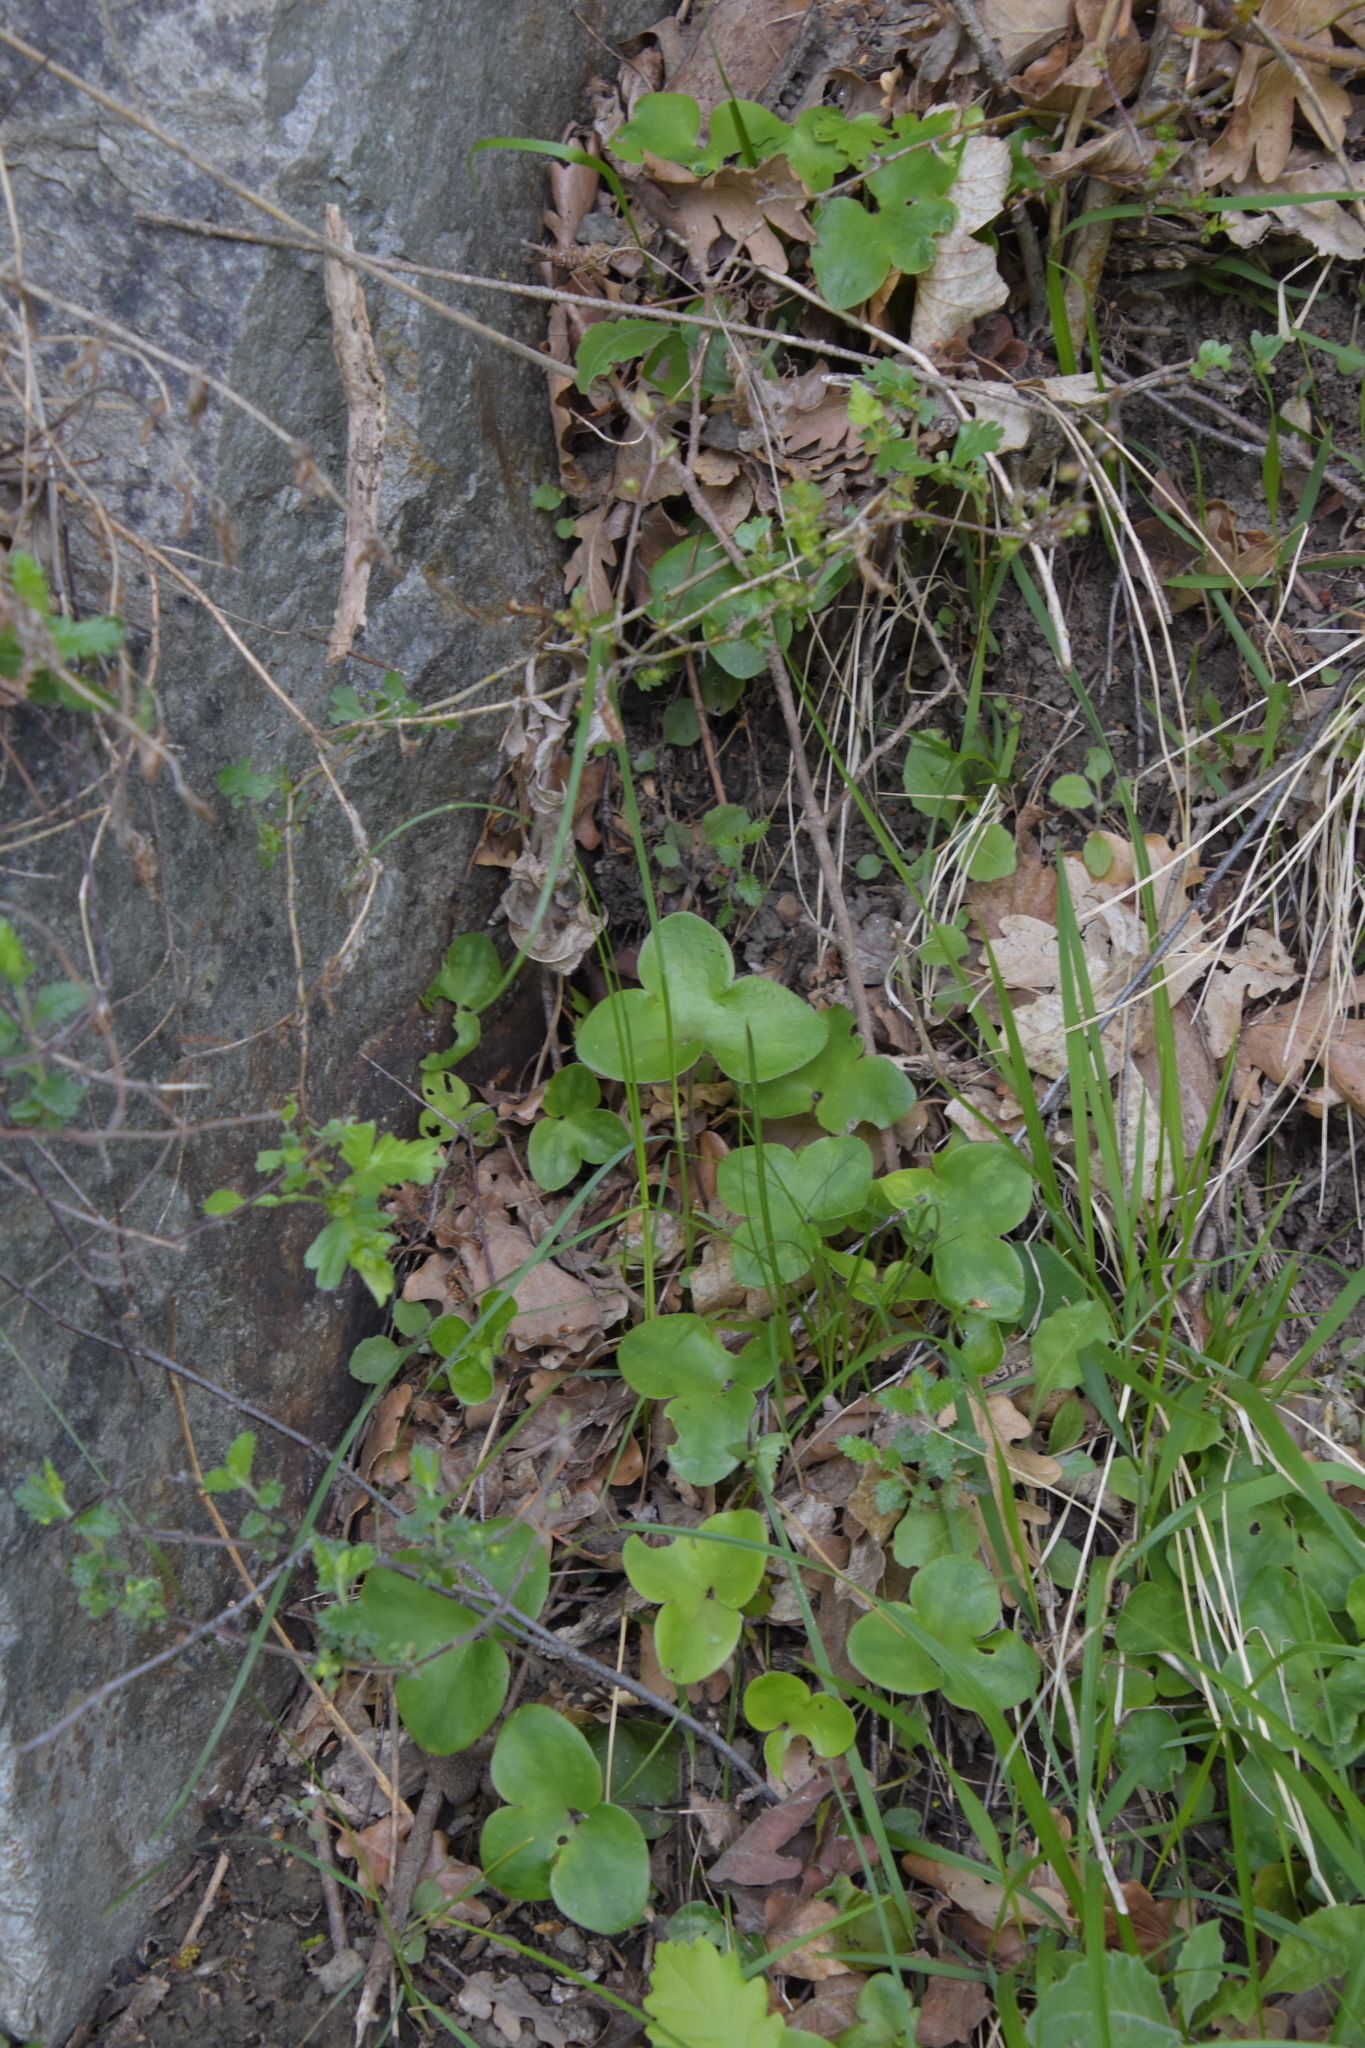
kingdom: Plantae
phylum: Tracheophyta
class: Magnoliopsida
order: Ranunculales
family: Ranunculaceae
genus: Hepatica
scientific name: Hepatica nobilis
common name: Liverleaf
